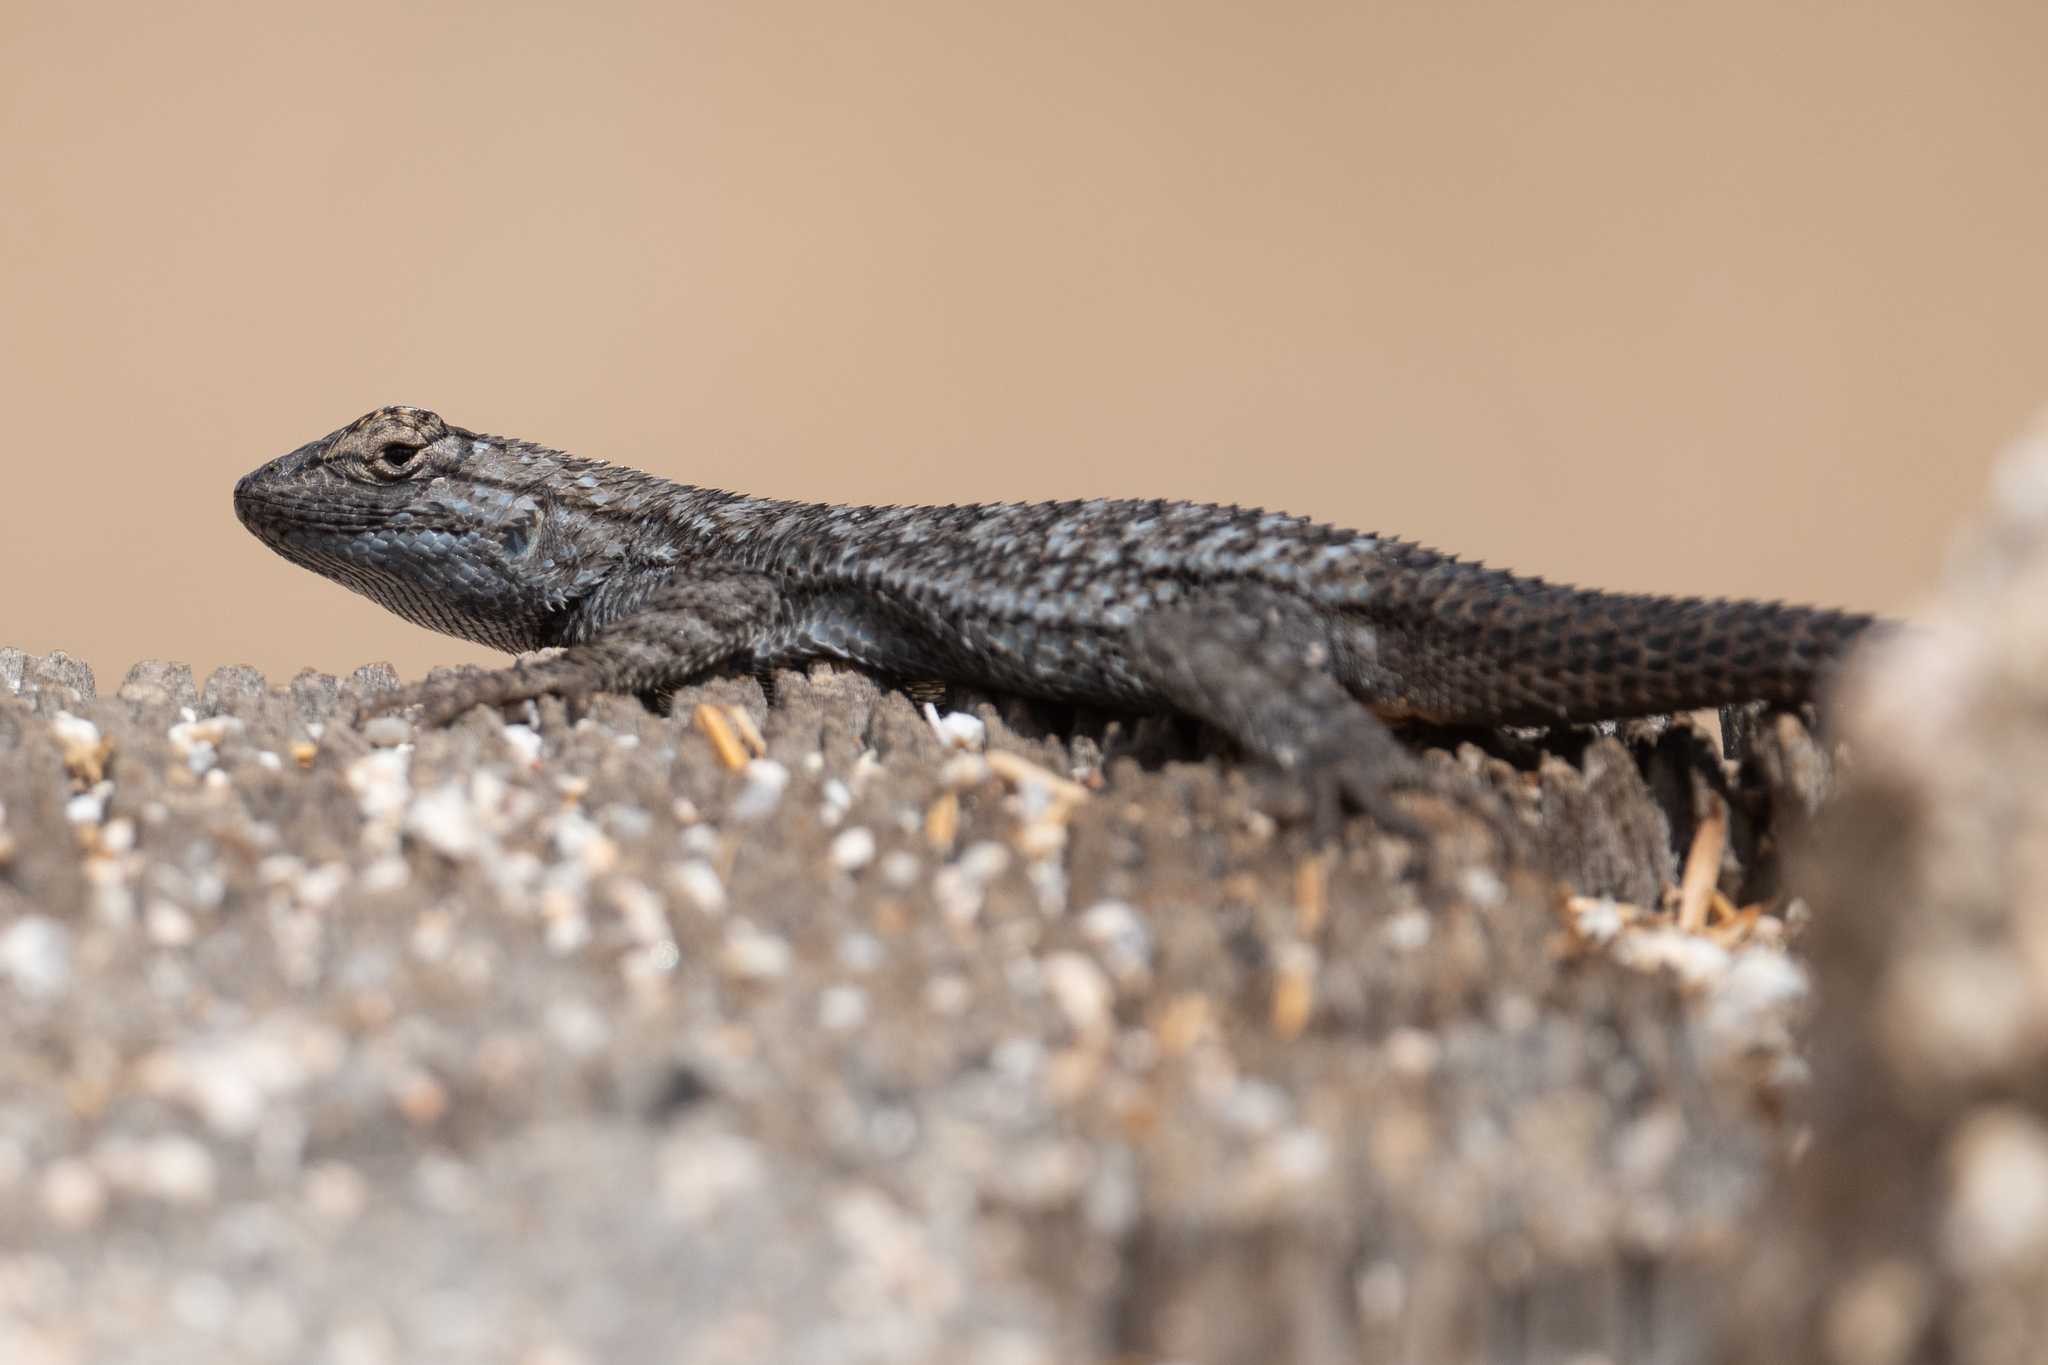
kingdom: Animalia
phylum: Chordata
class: Squamata
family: Phrynosomatidae
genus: Sceloporus
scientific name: Sceloporus occidentalis
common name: Western fence lizard
